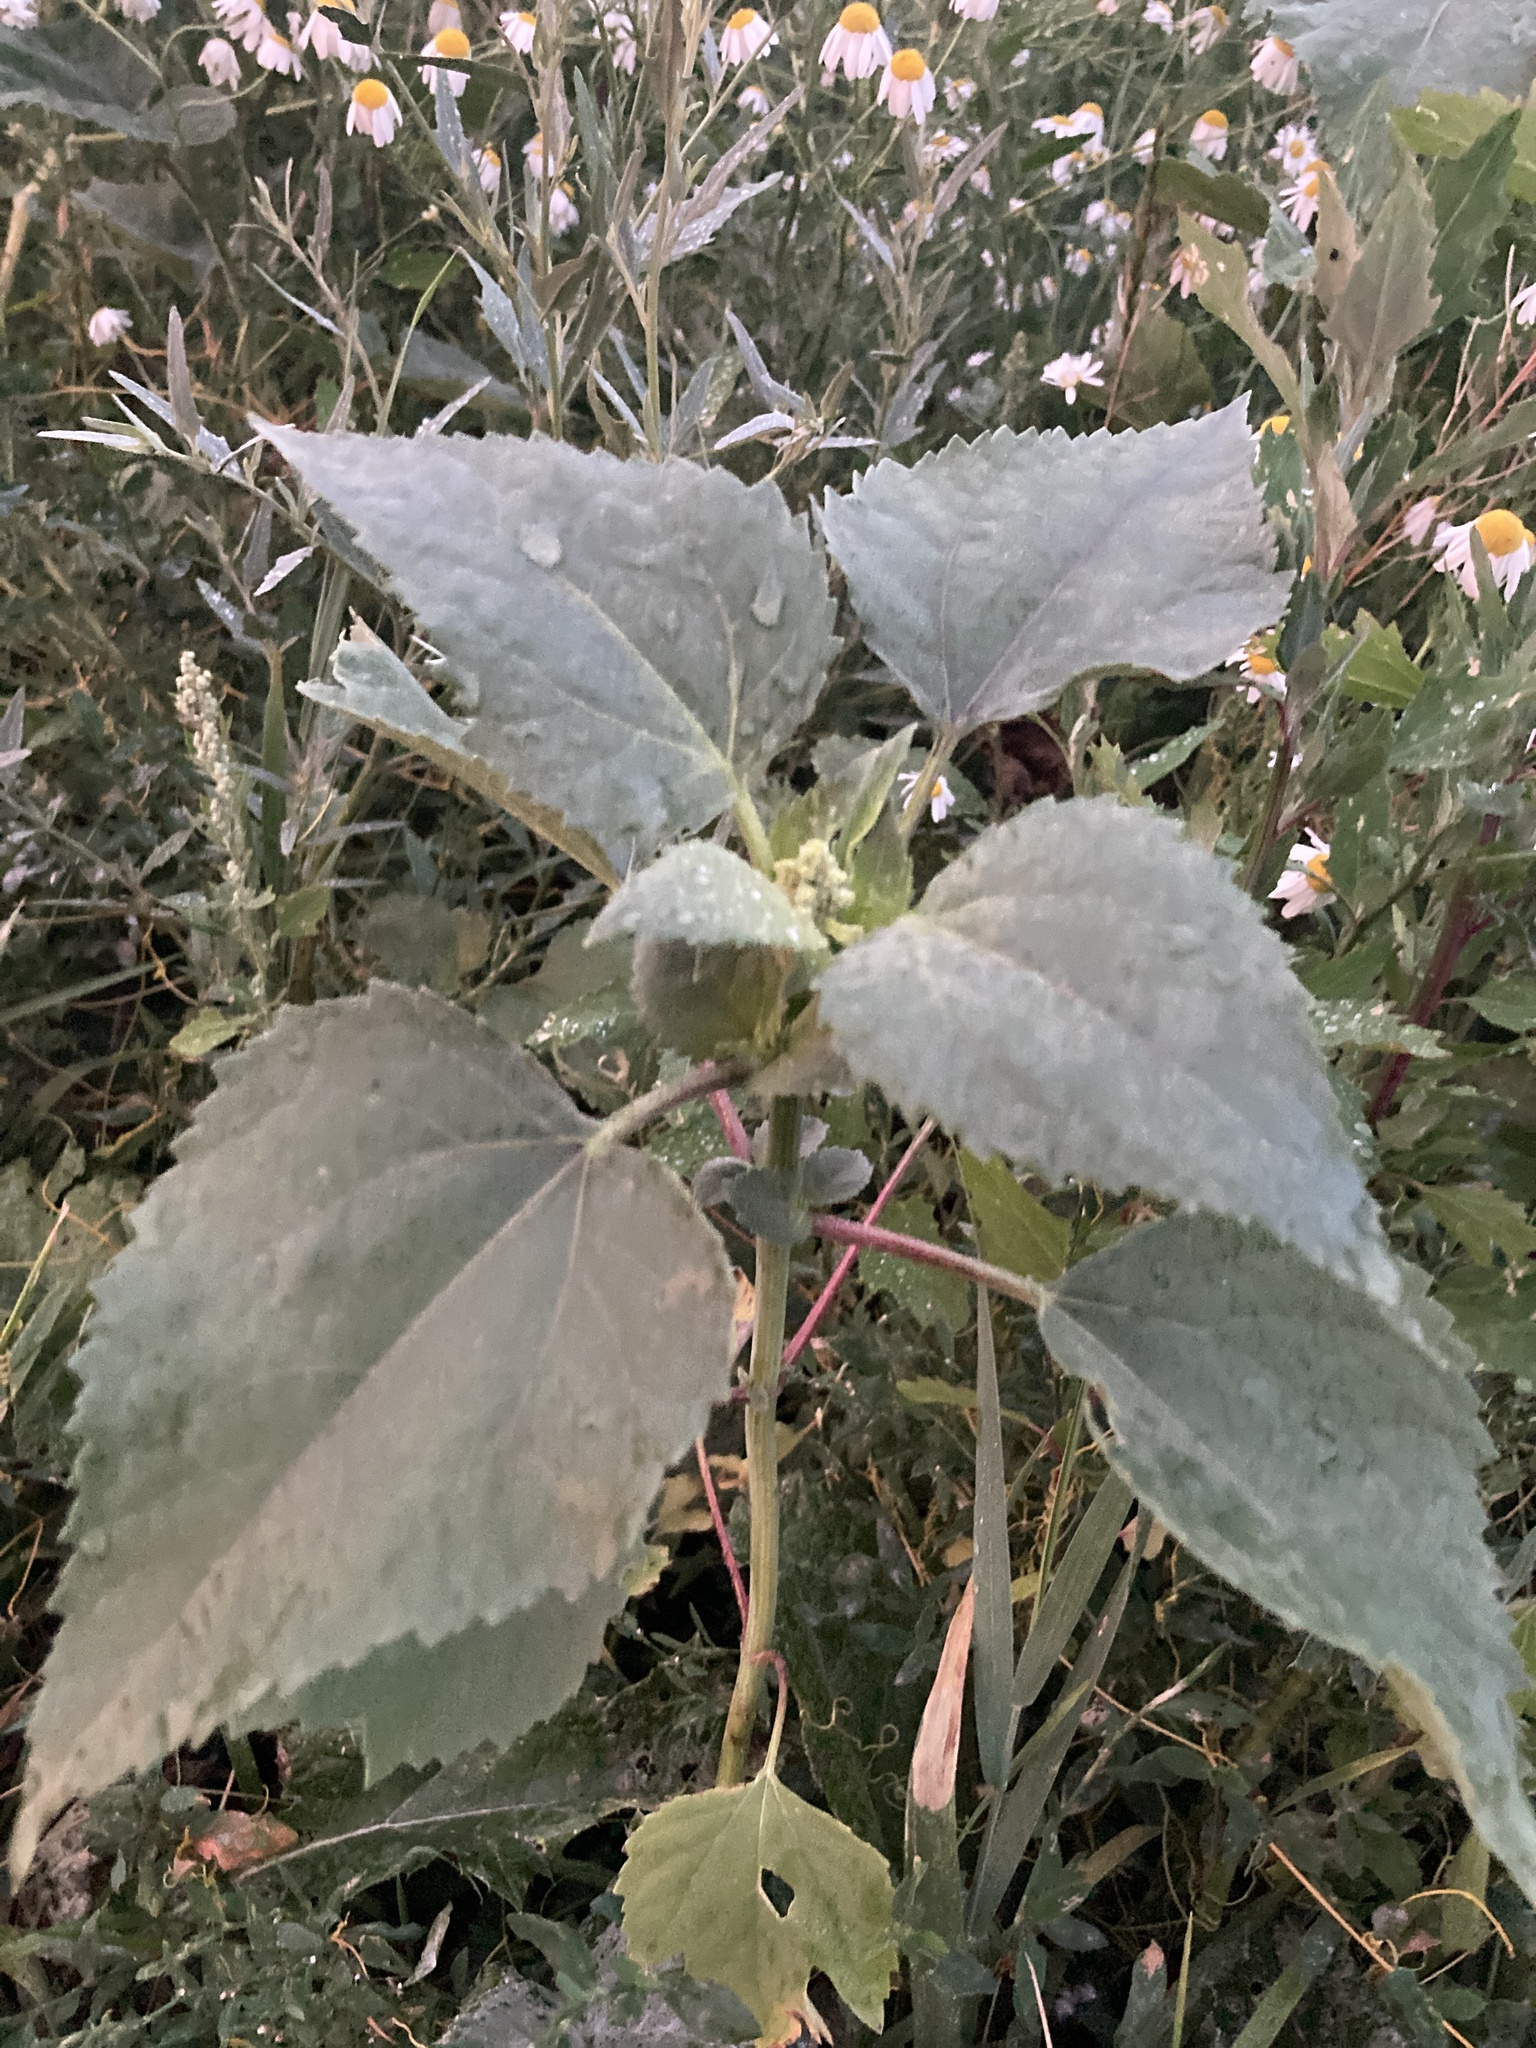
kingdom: Plantae
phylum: Tracheophyta
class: Magnoliopsida
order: Asterales
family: Asteraceae
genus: Cyclachaena
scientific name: Cyclachaena xanthiifolia
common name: Giant sumpweed
